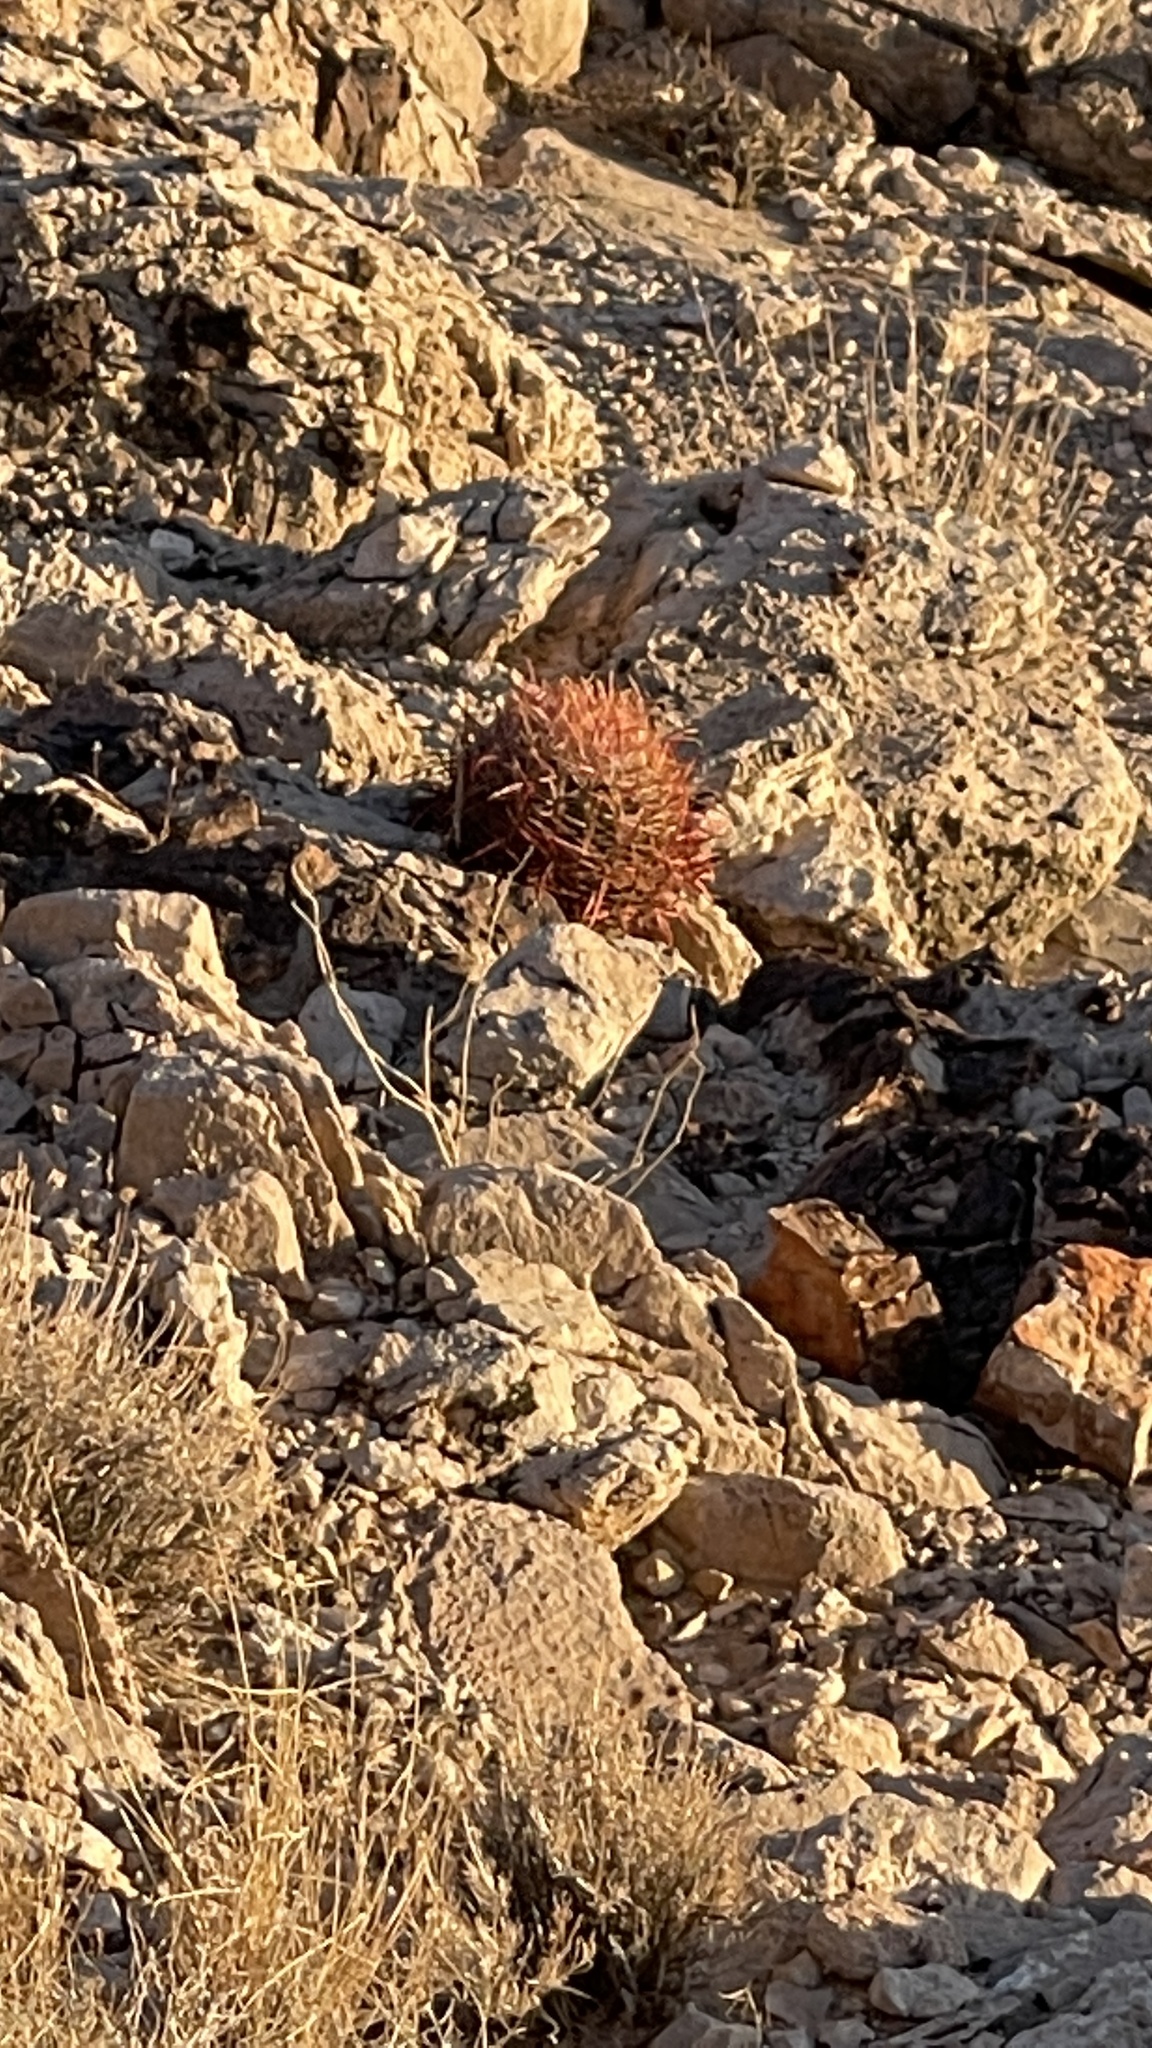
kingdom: Plantae
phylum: Tracheophyta
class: Magnoliopsida
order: Caryophyllales
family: Cactaceae
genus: Ferocactus
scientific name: Ferocactus cylindraceus
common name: California barrel cactus
